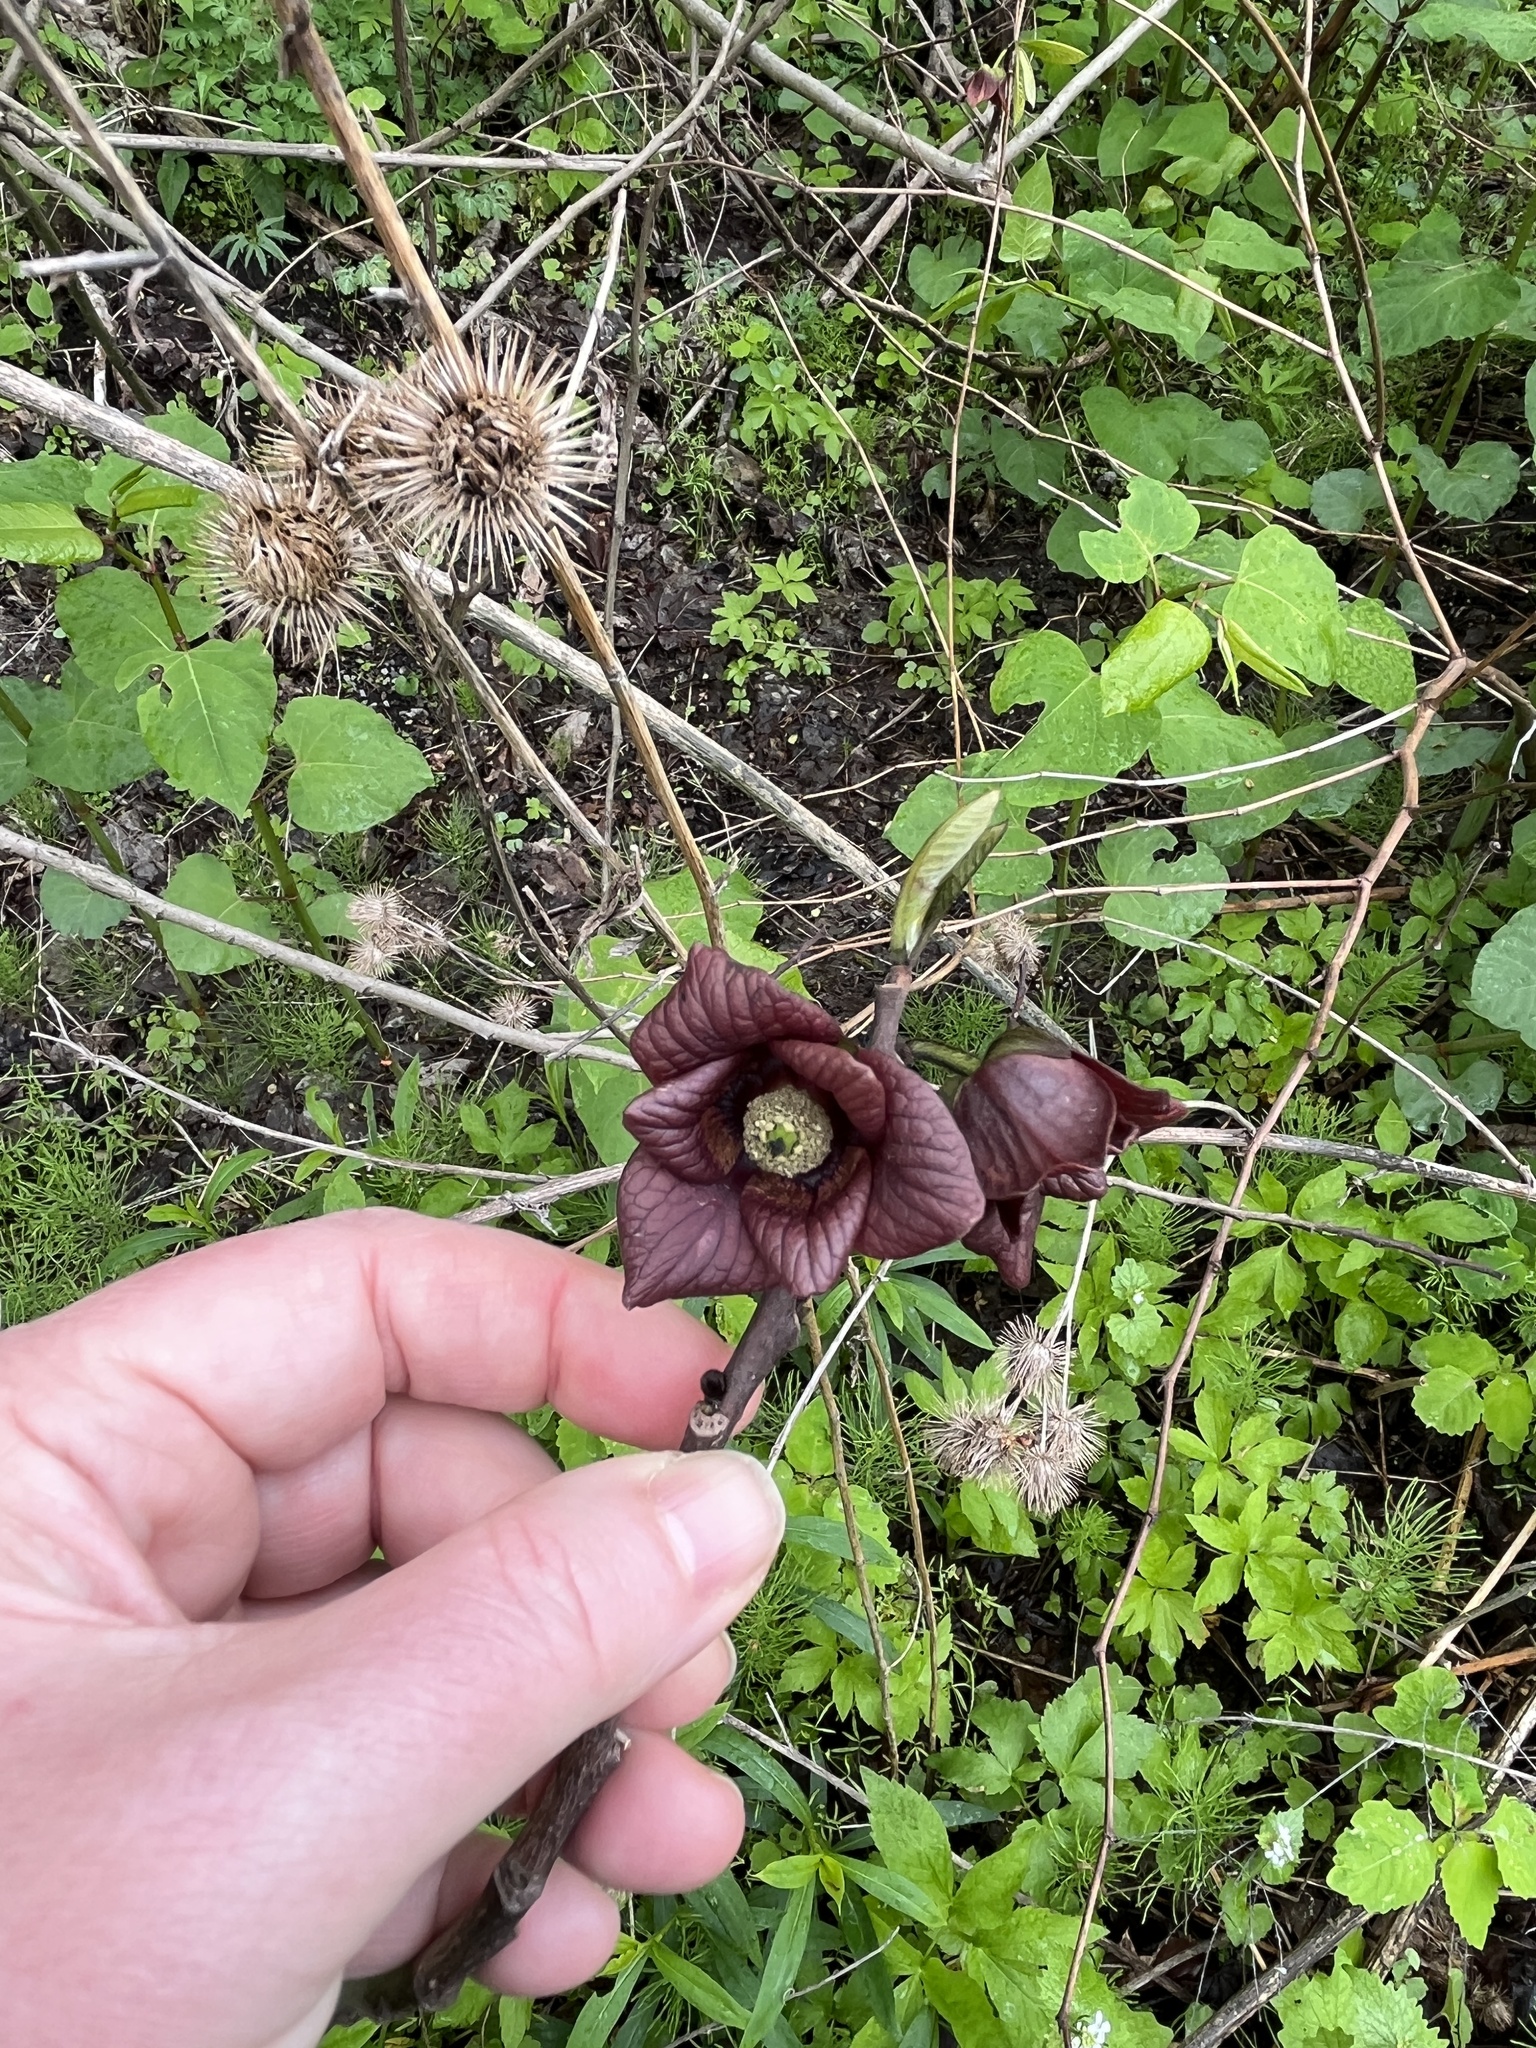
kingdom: Plantae
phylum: Tracheophyta
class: Magnoliopsida
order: Magnoliales
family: Annonaceae
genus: Asimina
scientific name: Asimina triloba
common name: Dog-banana
